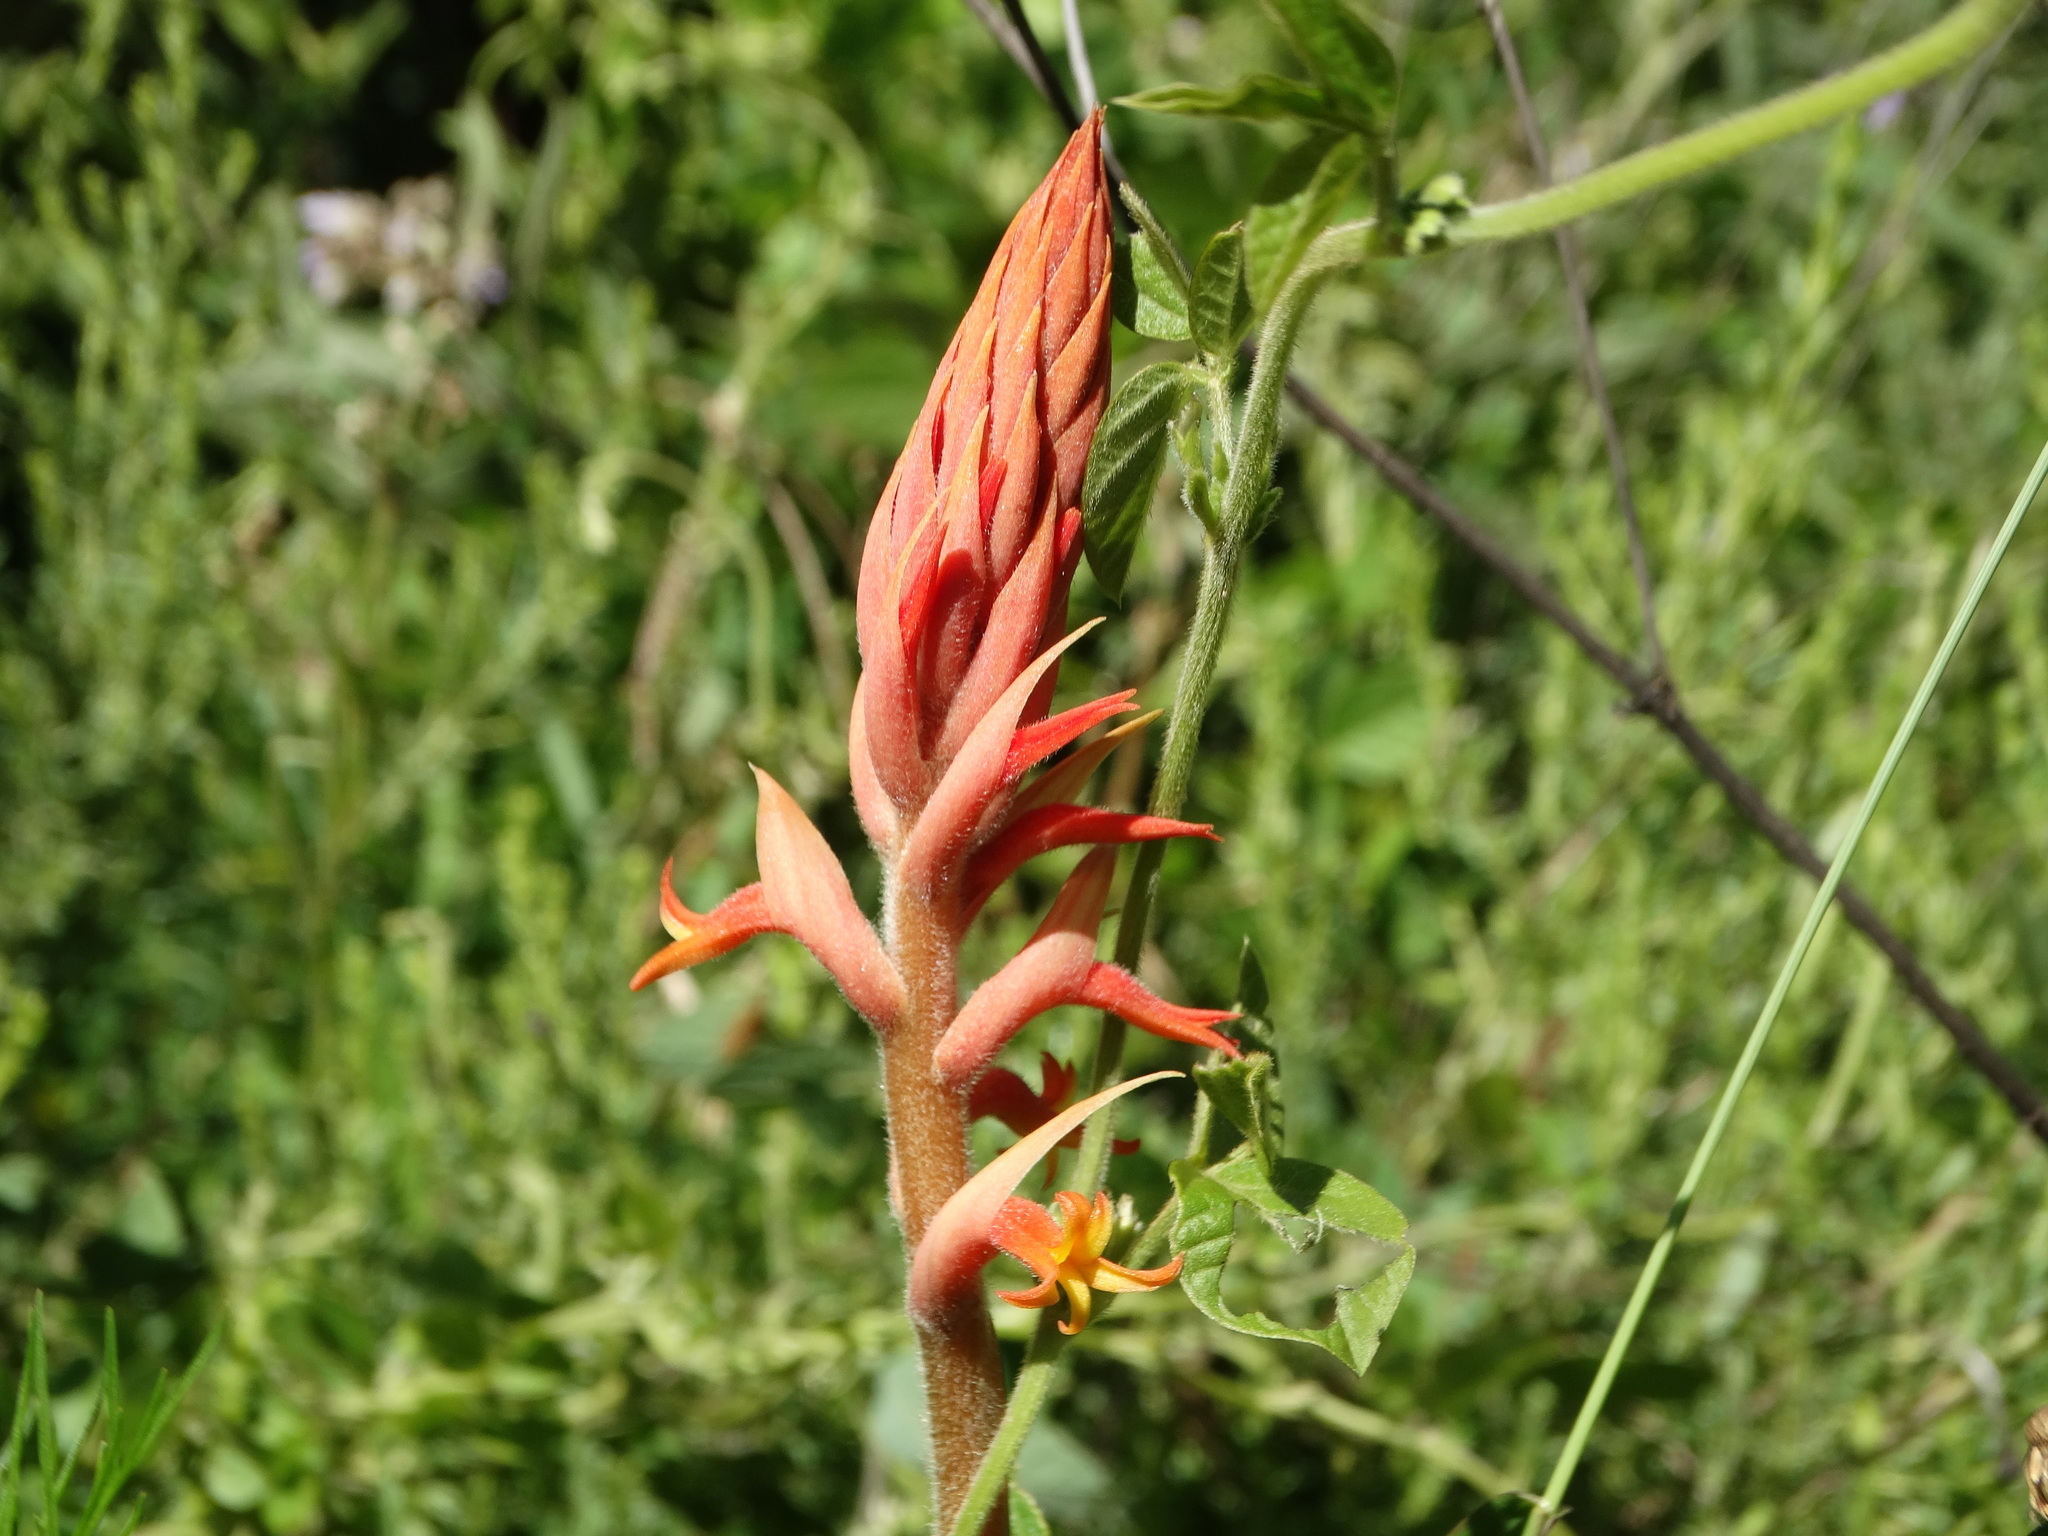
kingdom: Plantae
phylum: Tracheophyta
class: Liliopsida
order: Asparagales
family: Orchidaceae
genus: Dichromanthus
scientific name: Dichromanthus cinnabarinus
